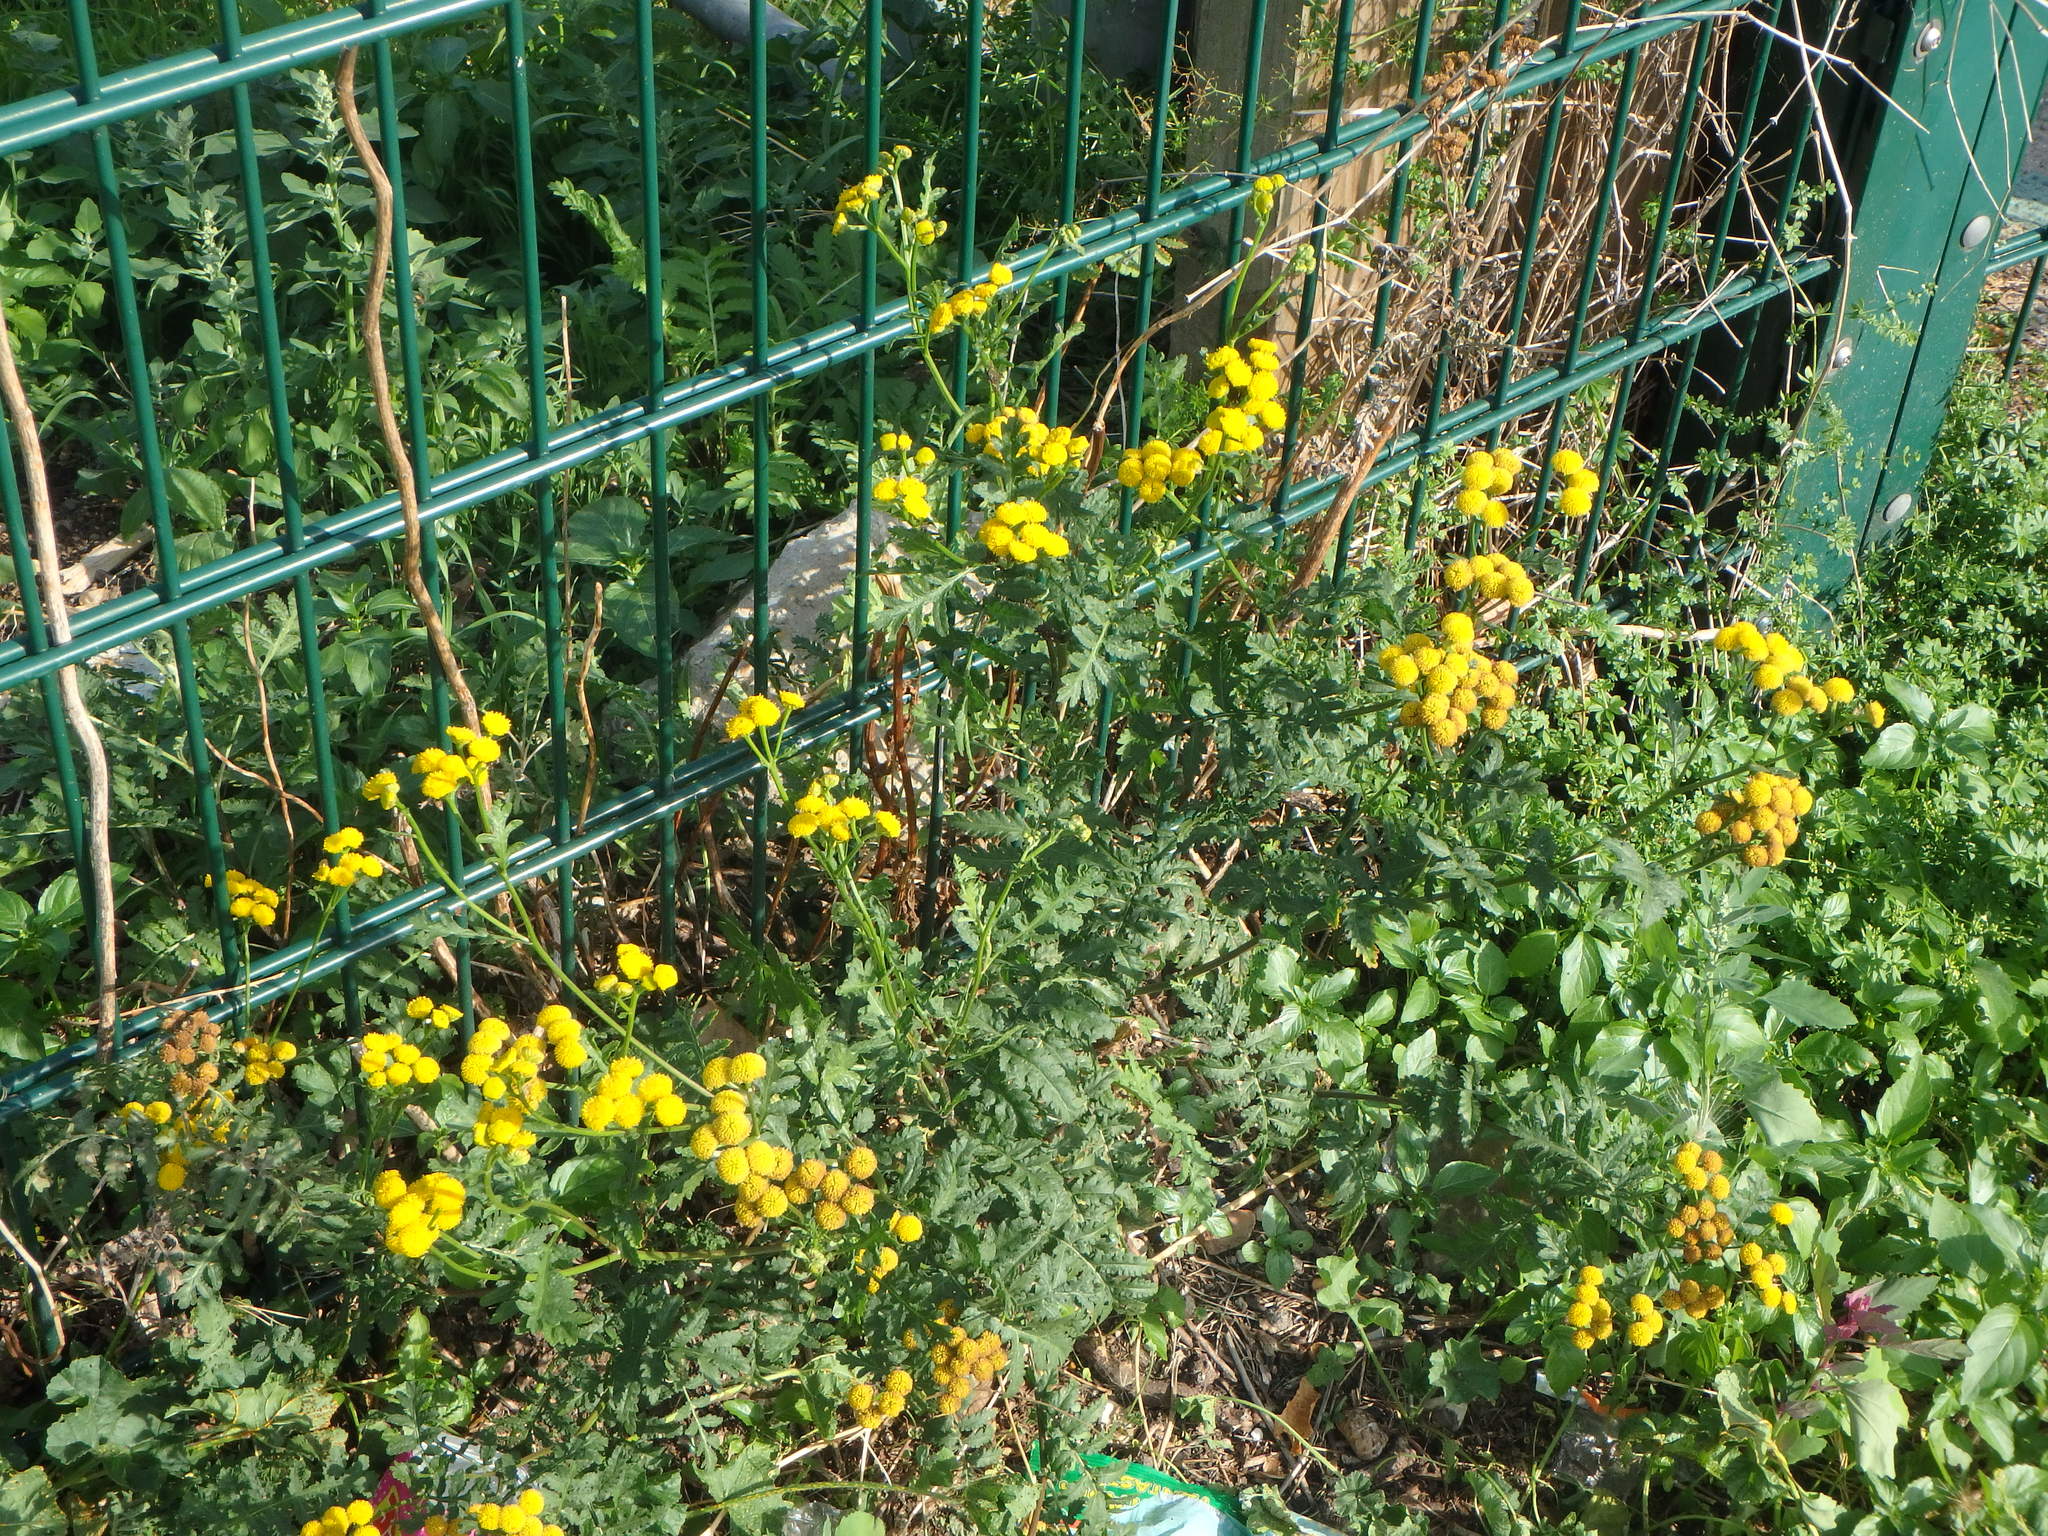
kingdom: Plantae
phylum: Tracheophyta
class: Magnoliopsida
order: Asterales
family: Asteraceae
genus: Tanacetum
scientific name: Tanacetum vulgare
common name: Common tansy
